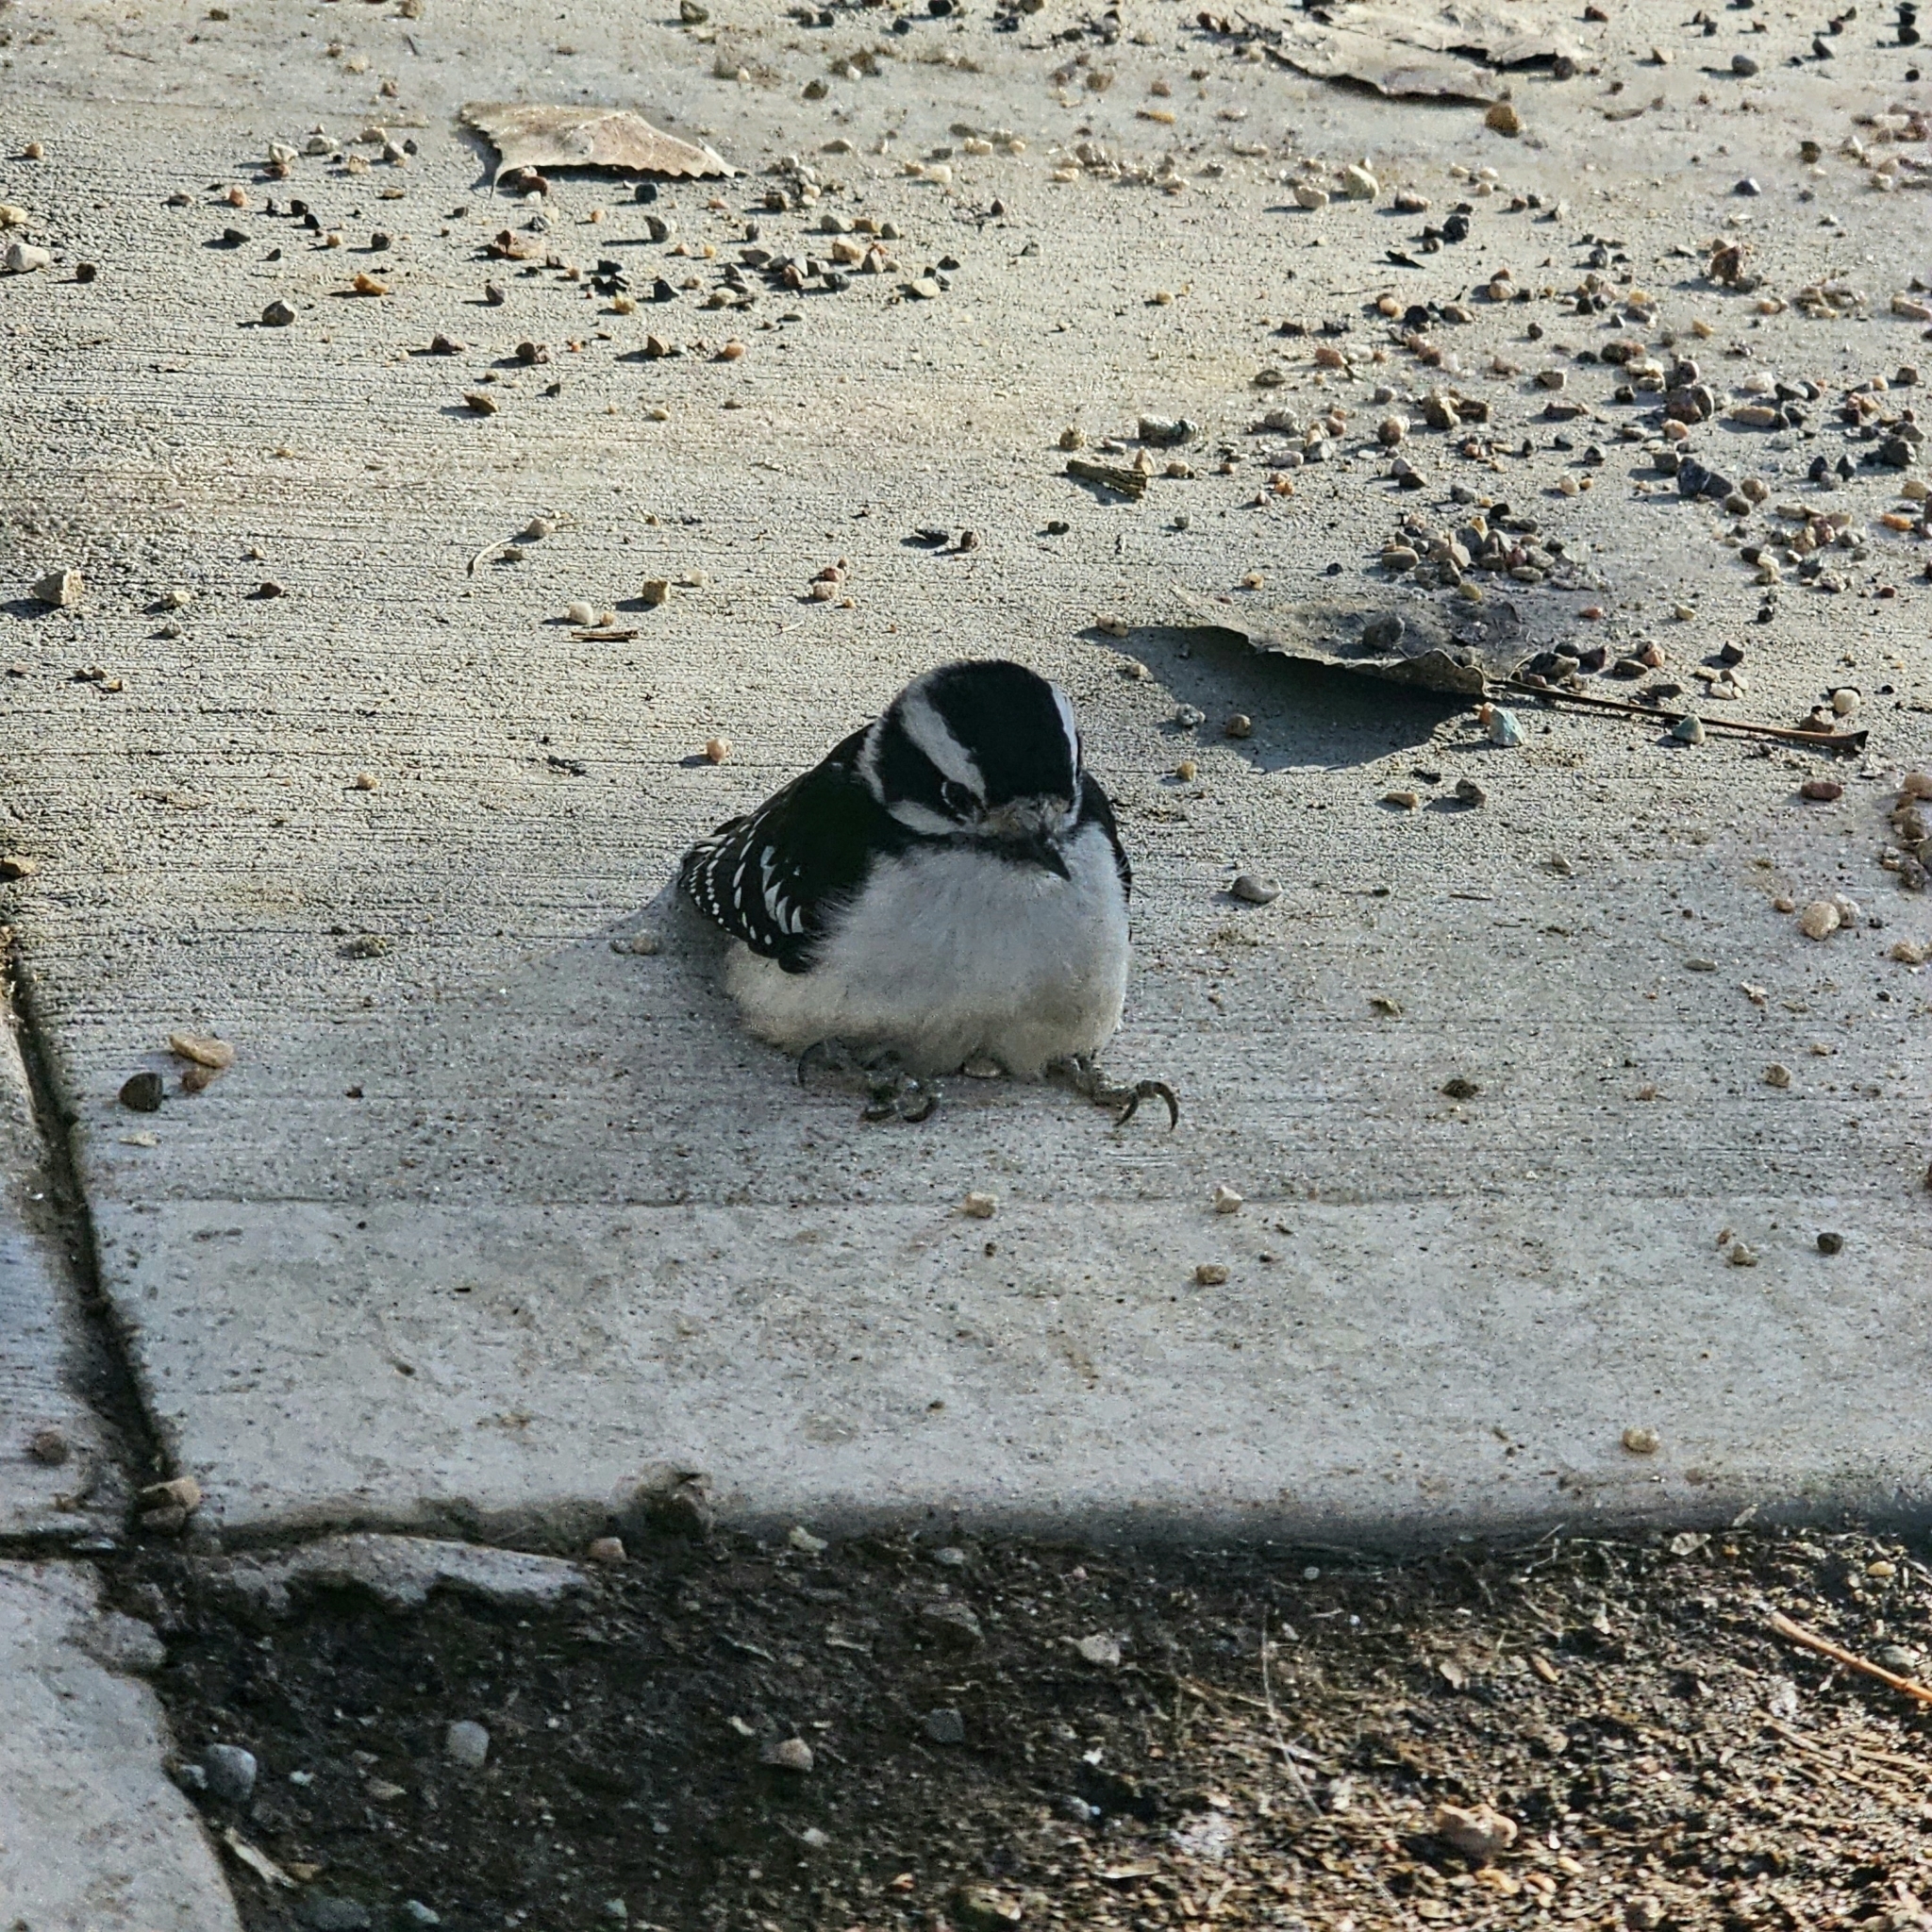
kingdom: Animalia
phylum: Chordata
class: Aves
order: Piciformes
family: Picidae
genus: Dryobates
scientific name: Dryobates pubescens
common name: Downy woodpecker
